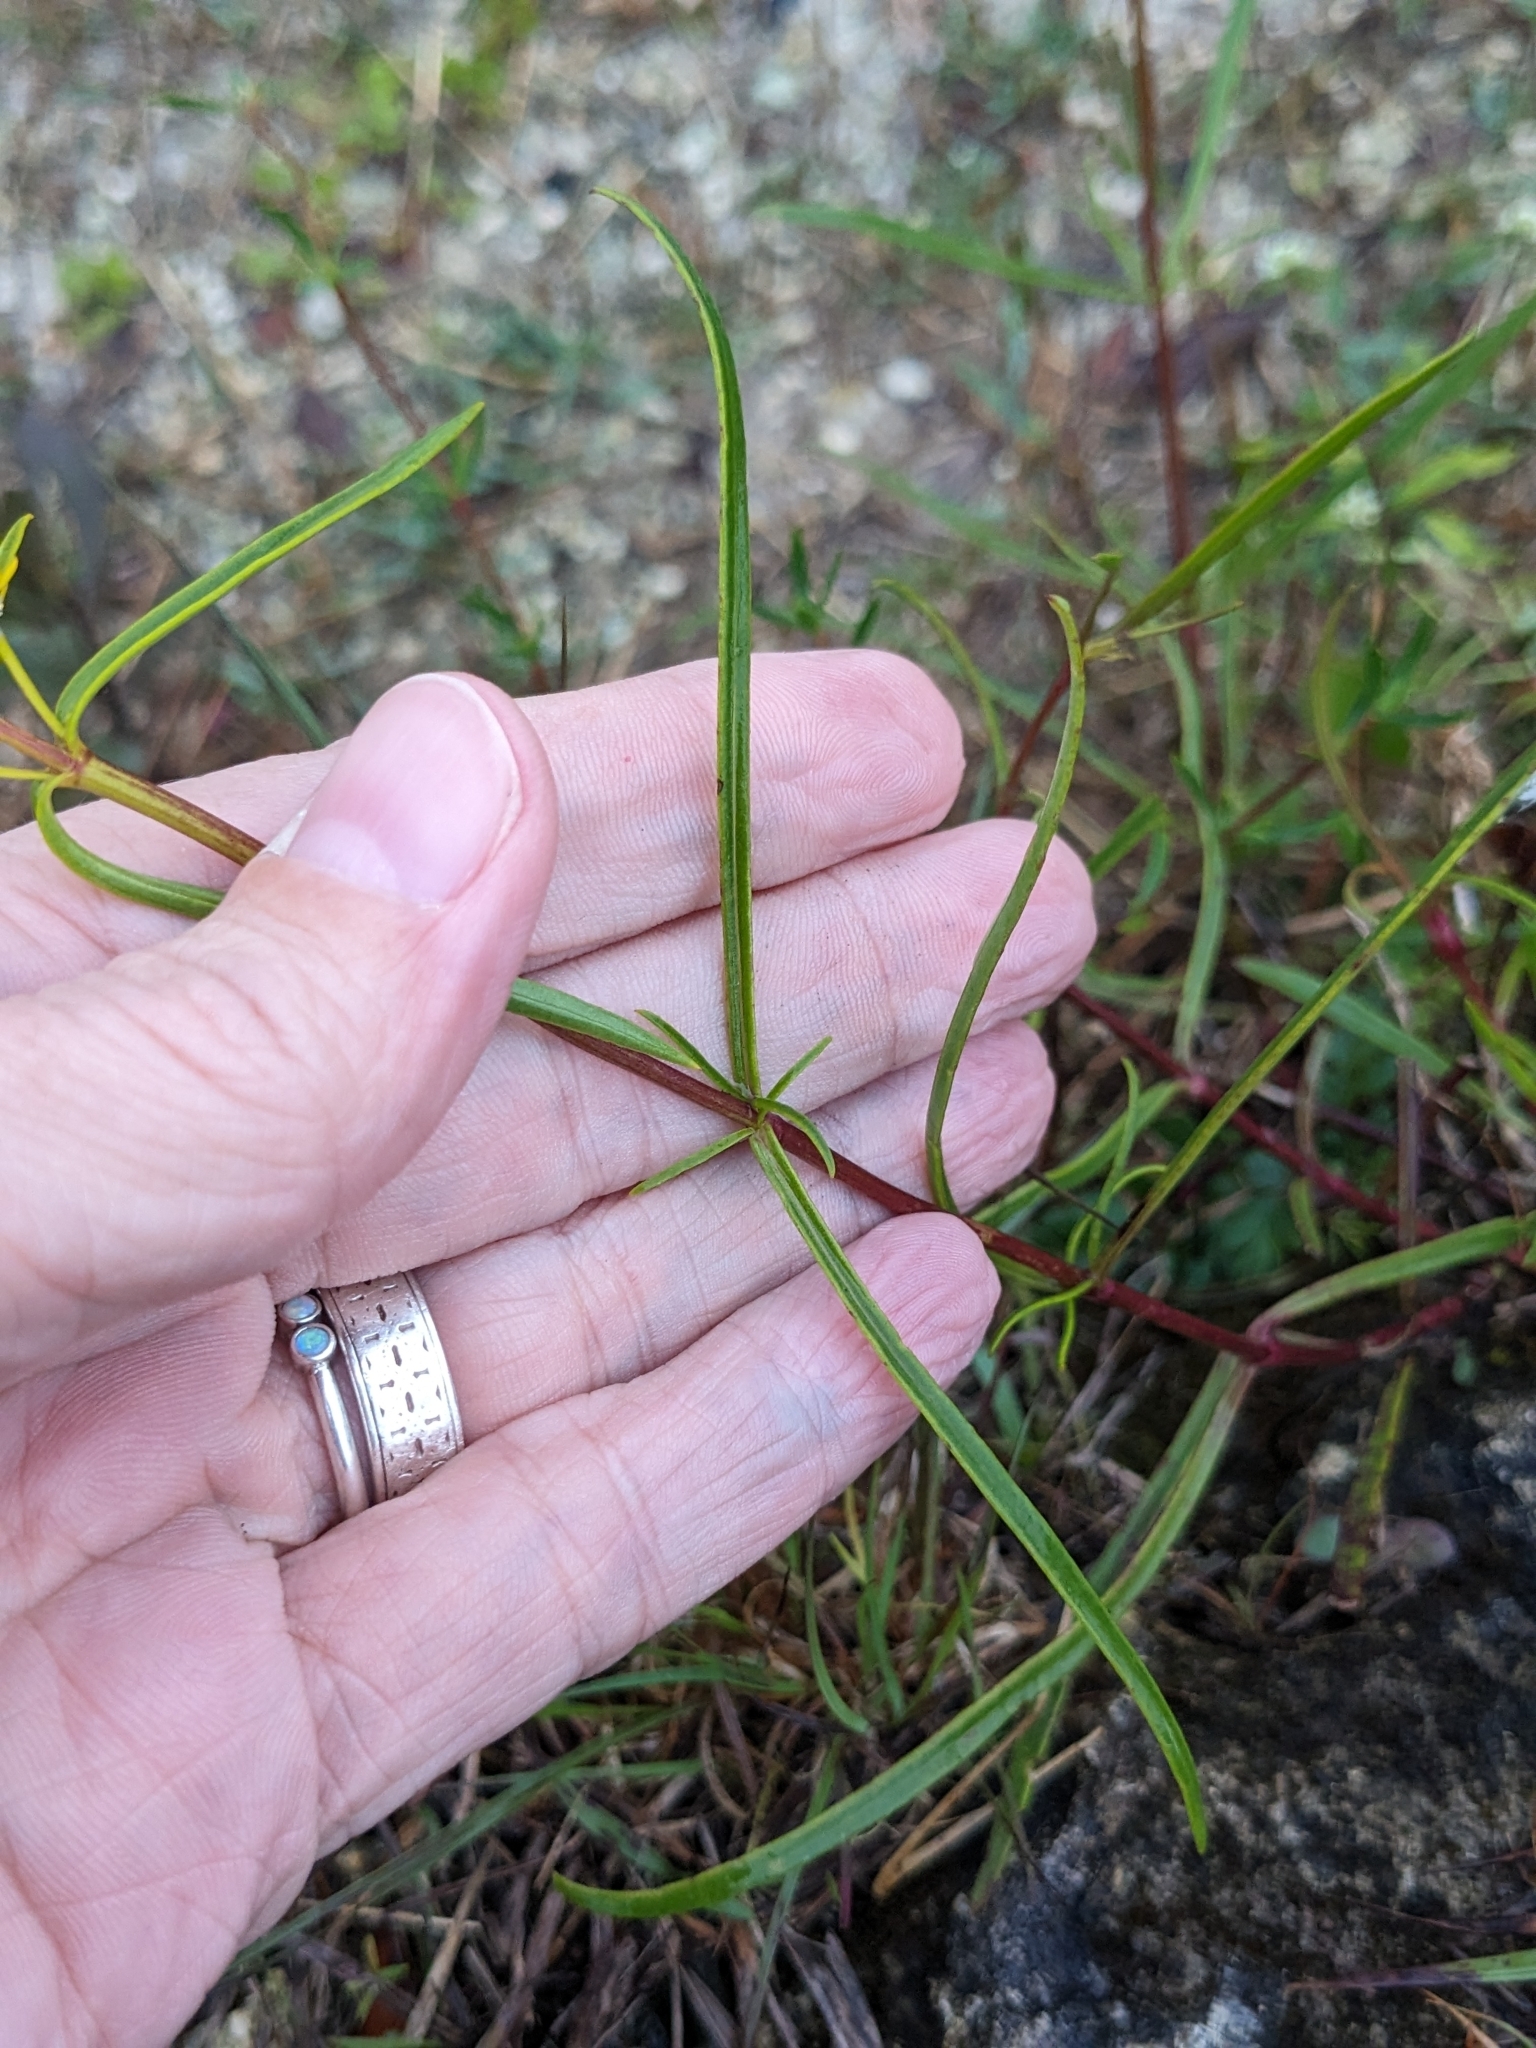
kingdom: Plantae
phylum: Tracheophyta
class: Magnoliopsida
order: Asterales
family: Asteraceae
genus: Flaveria
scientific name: Flaveria linearis
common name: Yellowtop
